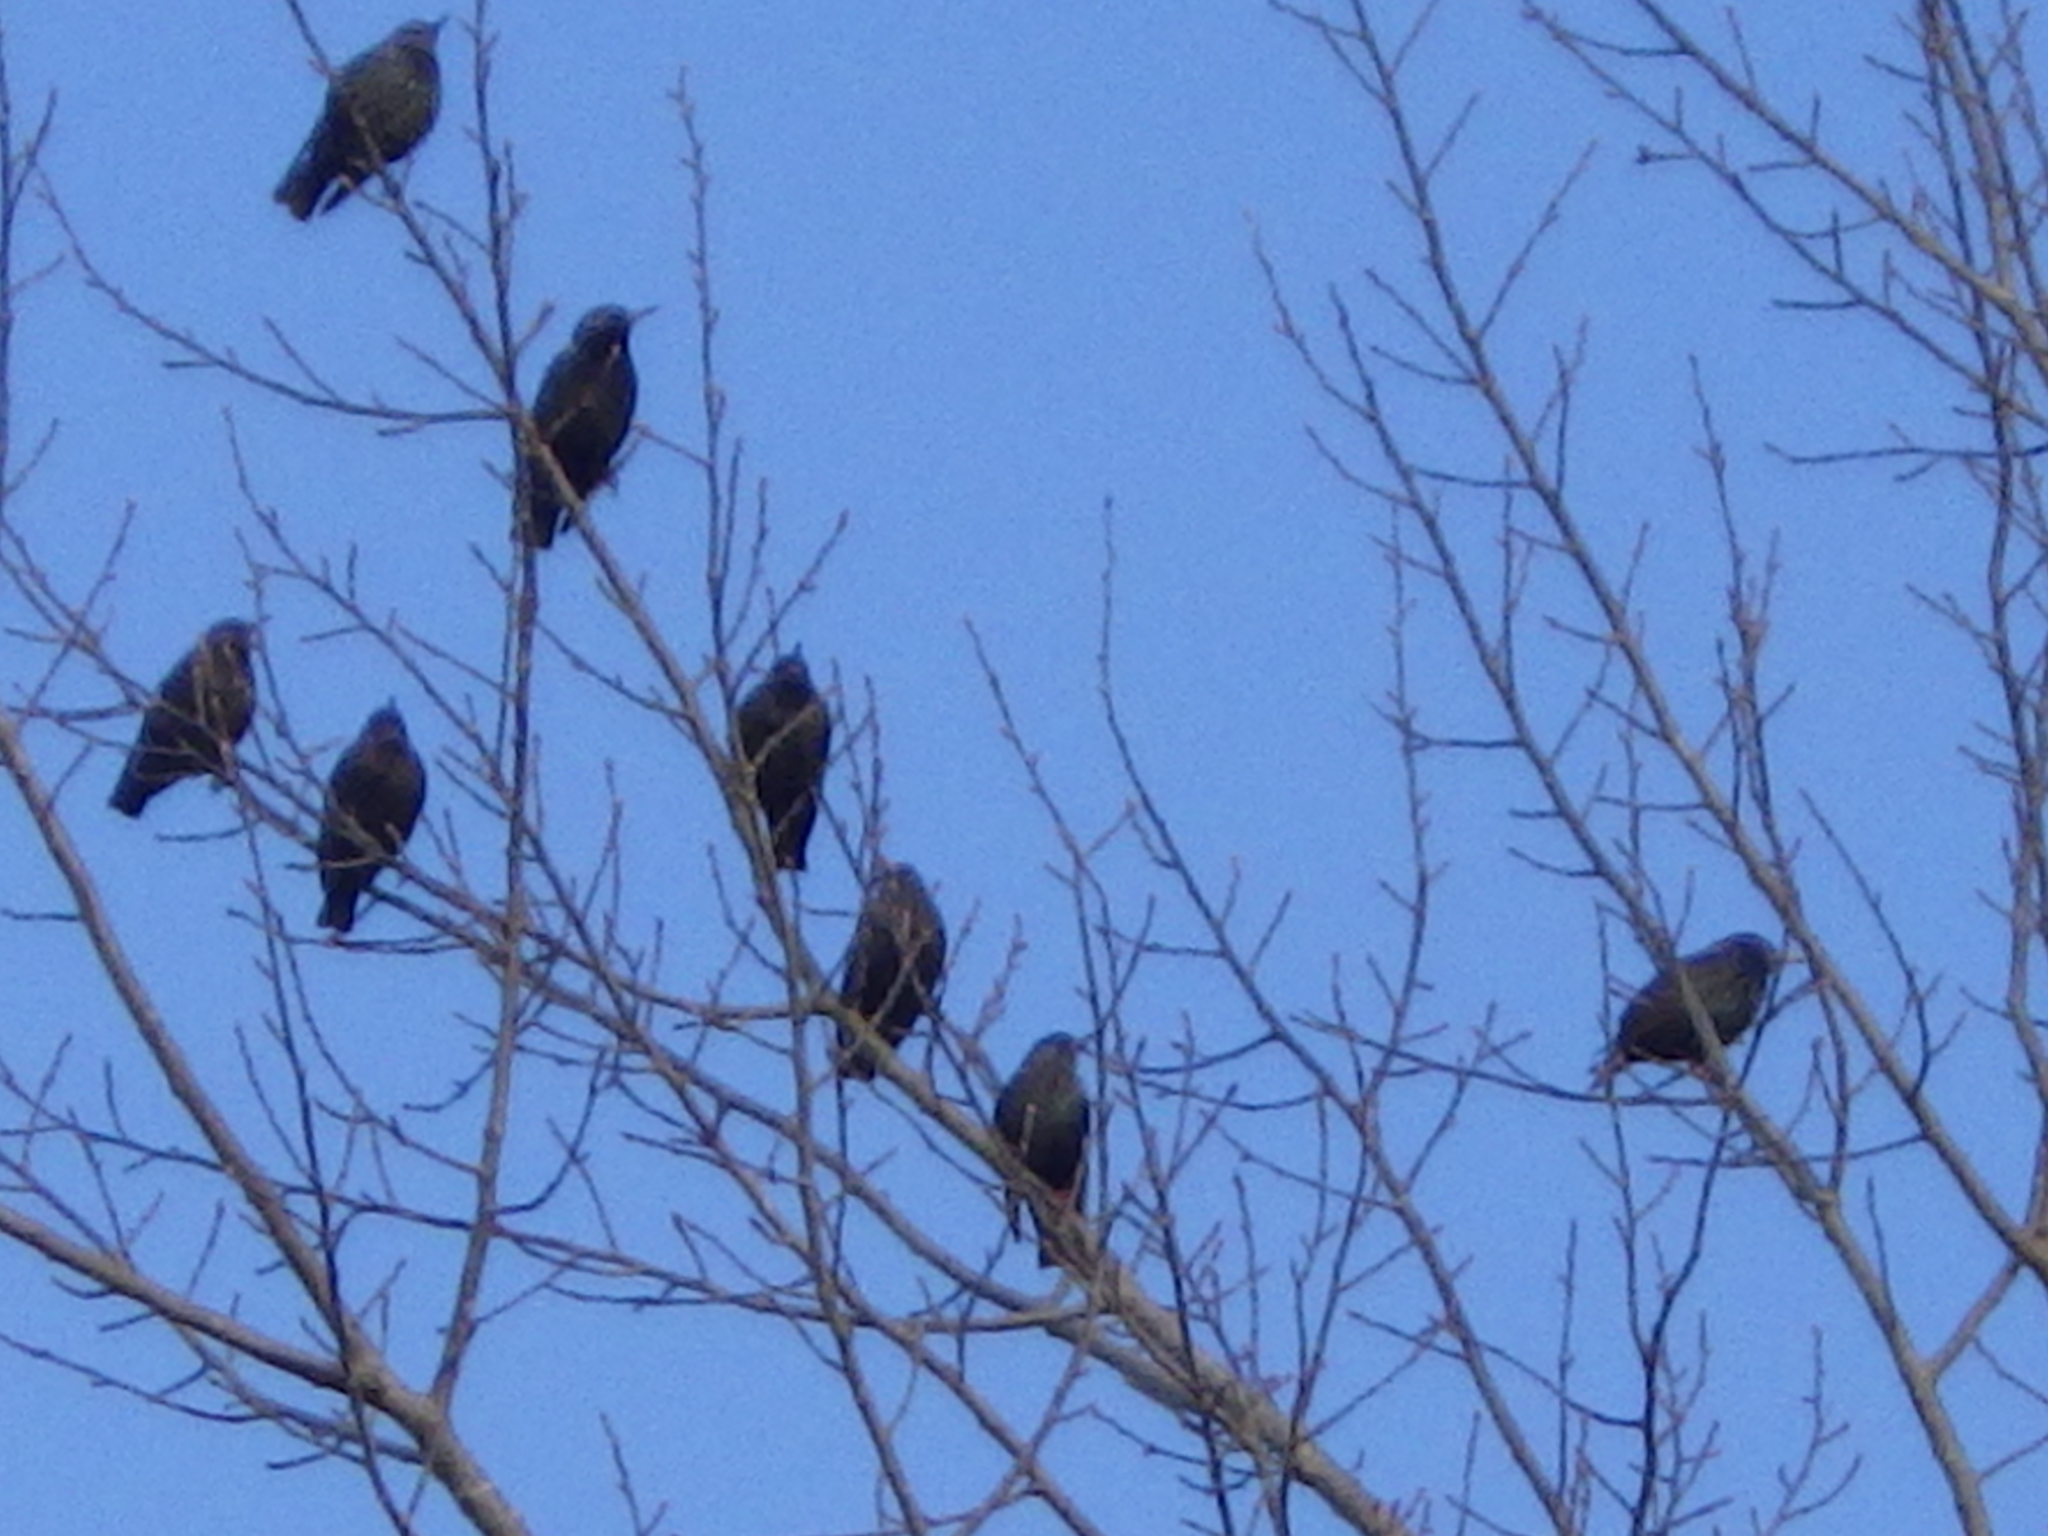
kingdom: Animalia
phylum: Chordata
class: Aves
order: Passeriformes
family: Sturnidae
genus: Sturnus
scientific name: Sturnus vulgaris
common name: Common starling
